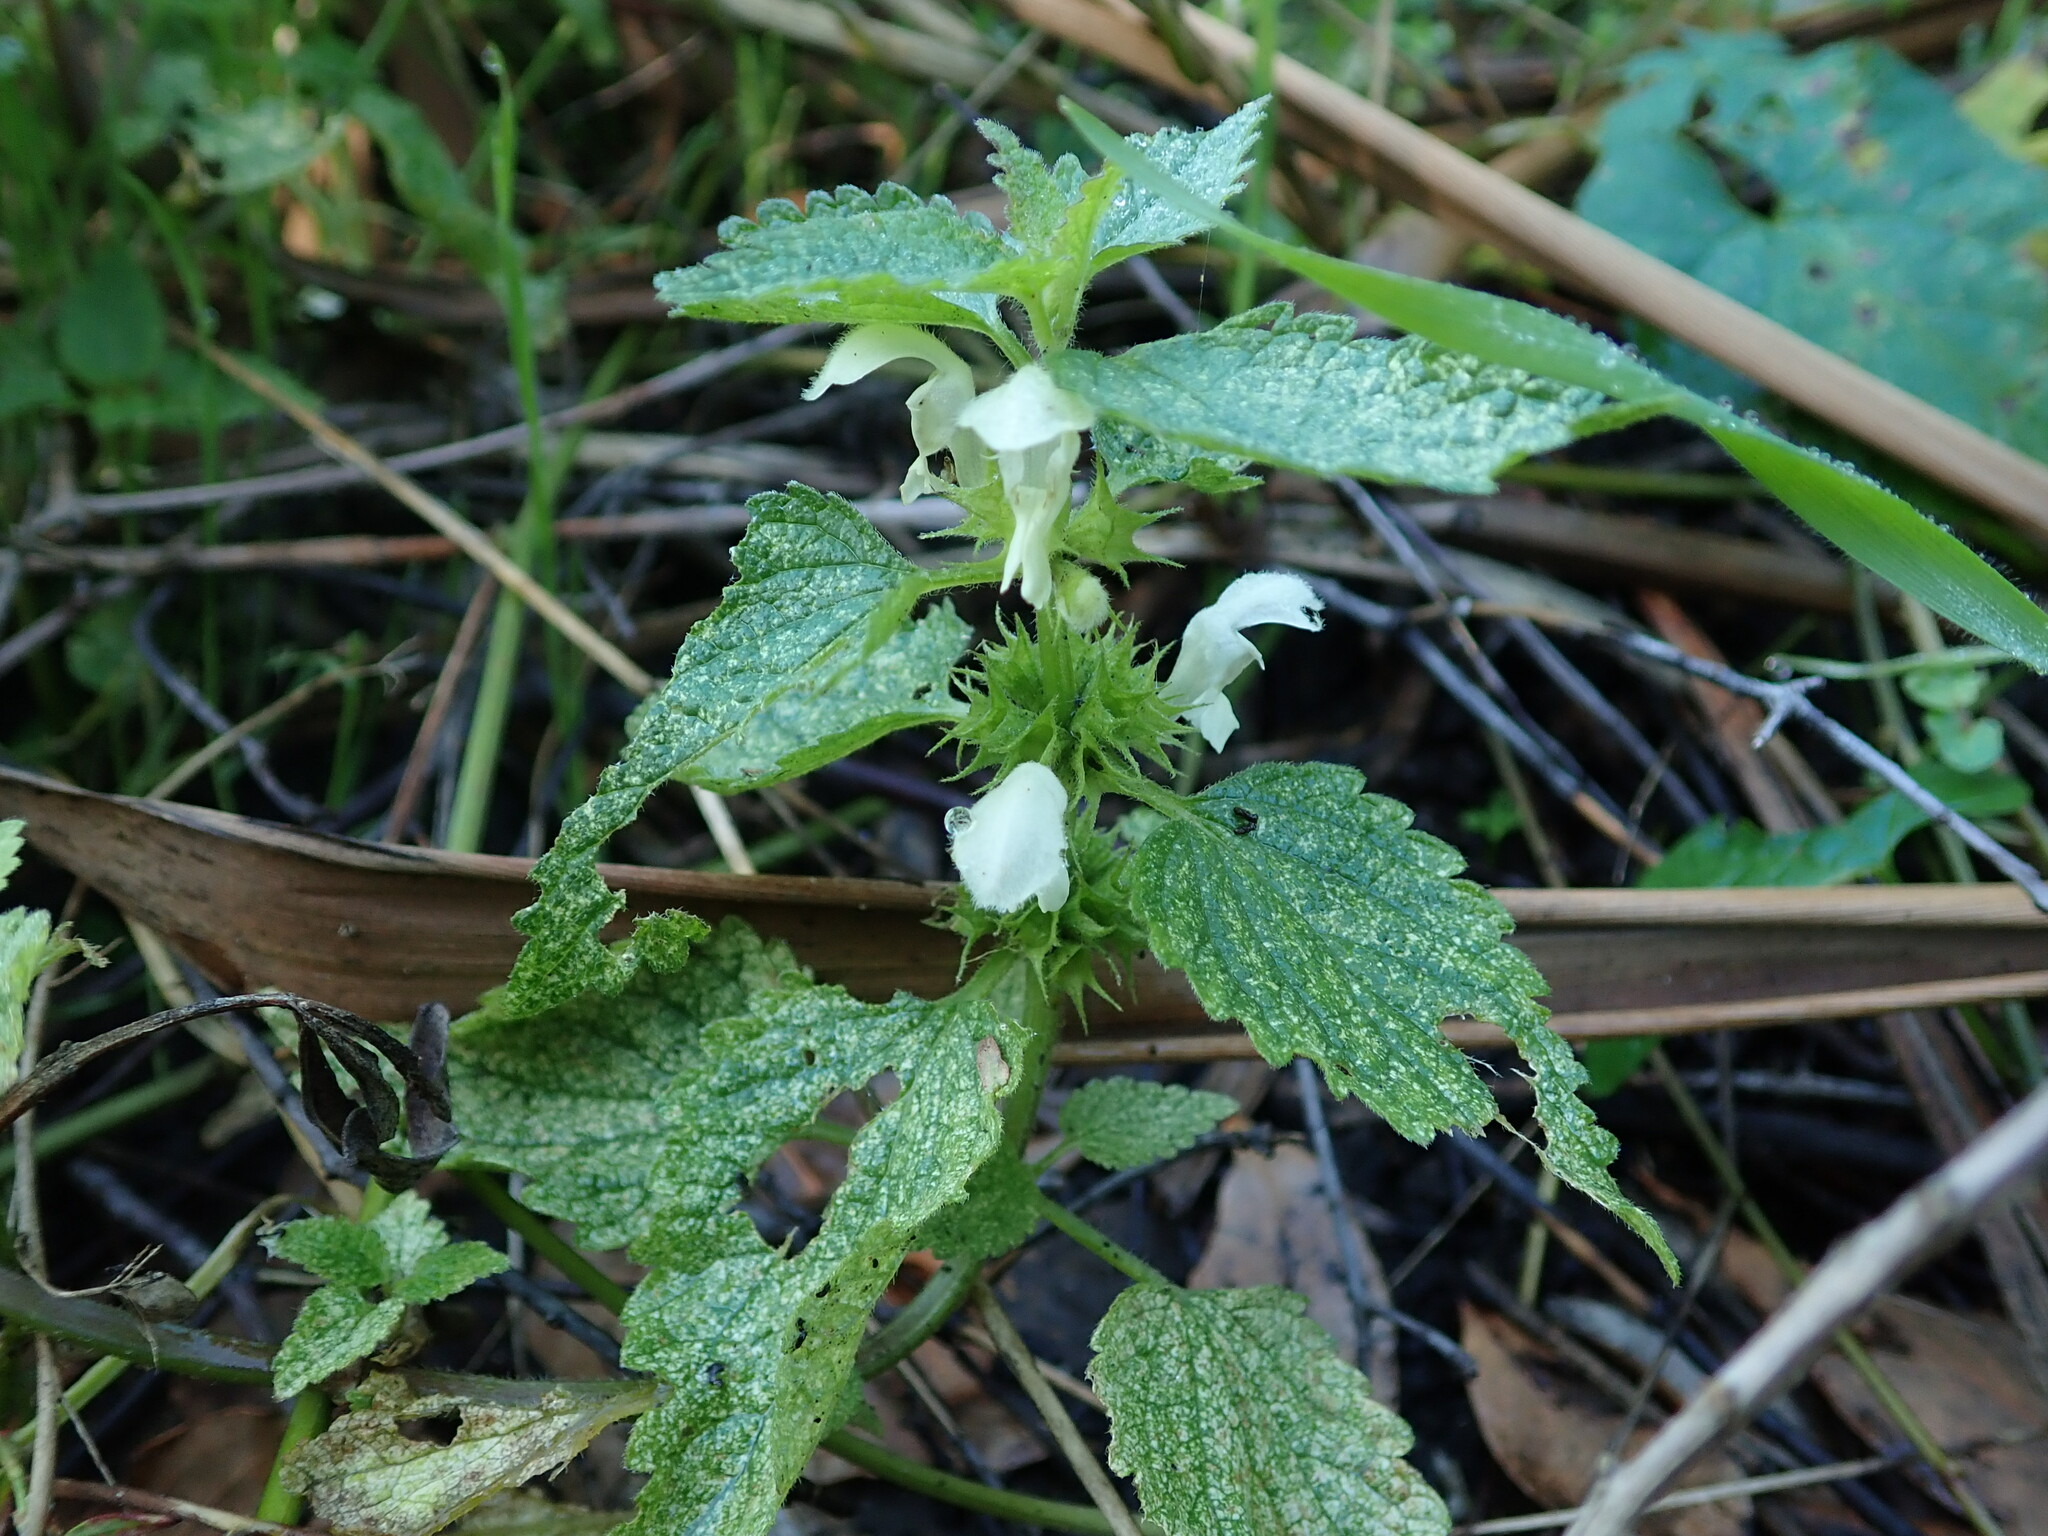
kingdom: Plantae
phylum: Tracheophyta
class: Magnoliopsida
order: Lamiales
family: Lamiaceae
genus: Lamium
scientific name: Lamium album
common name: White dead-nettle
